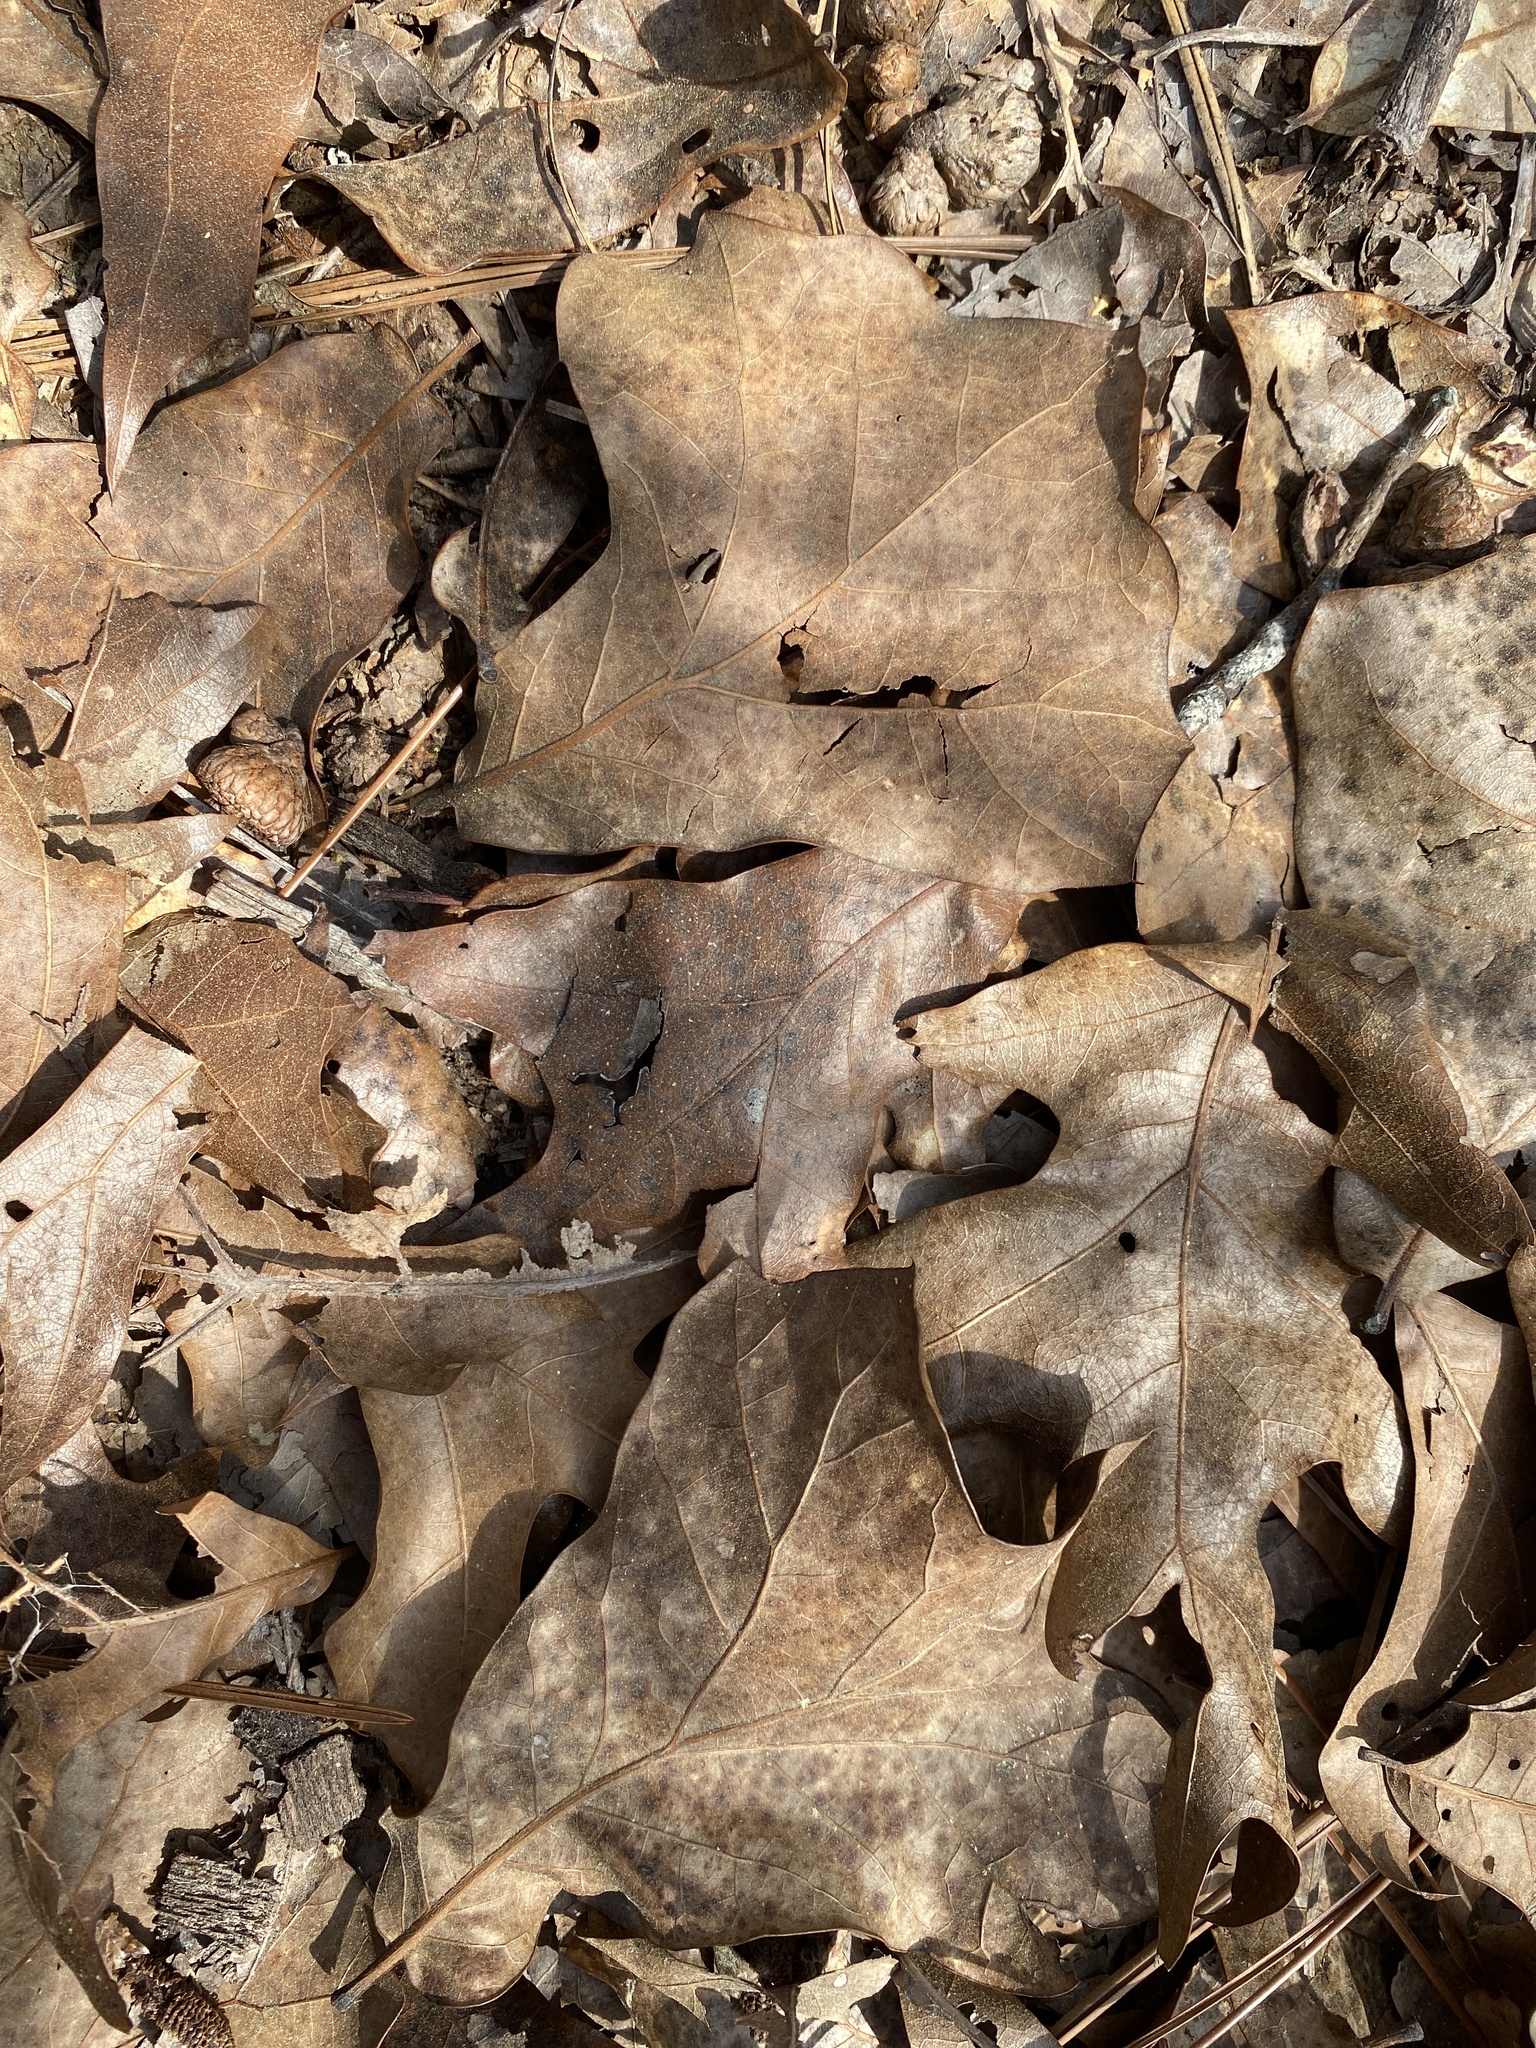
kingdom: Plantae
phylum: Tracheophyta
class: Magnoliopsida
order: Fagales
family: Fagaceae
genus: Quercus
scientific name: Quercus marilandica
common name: Blackjack oak
